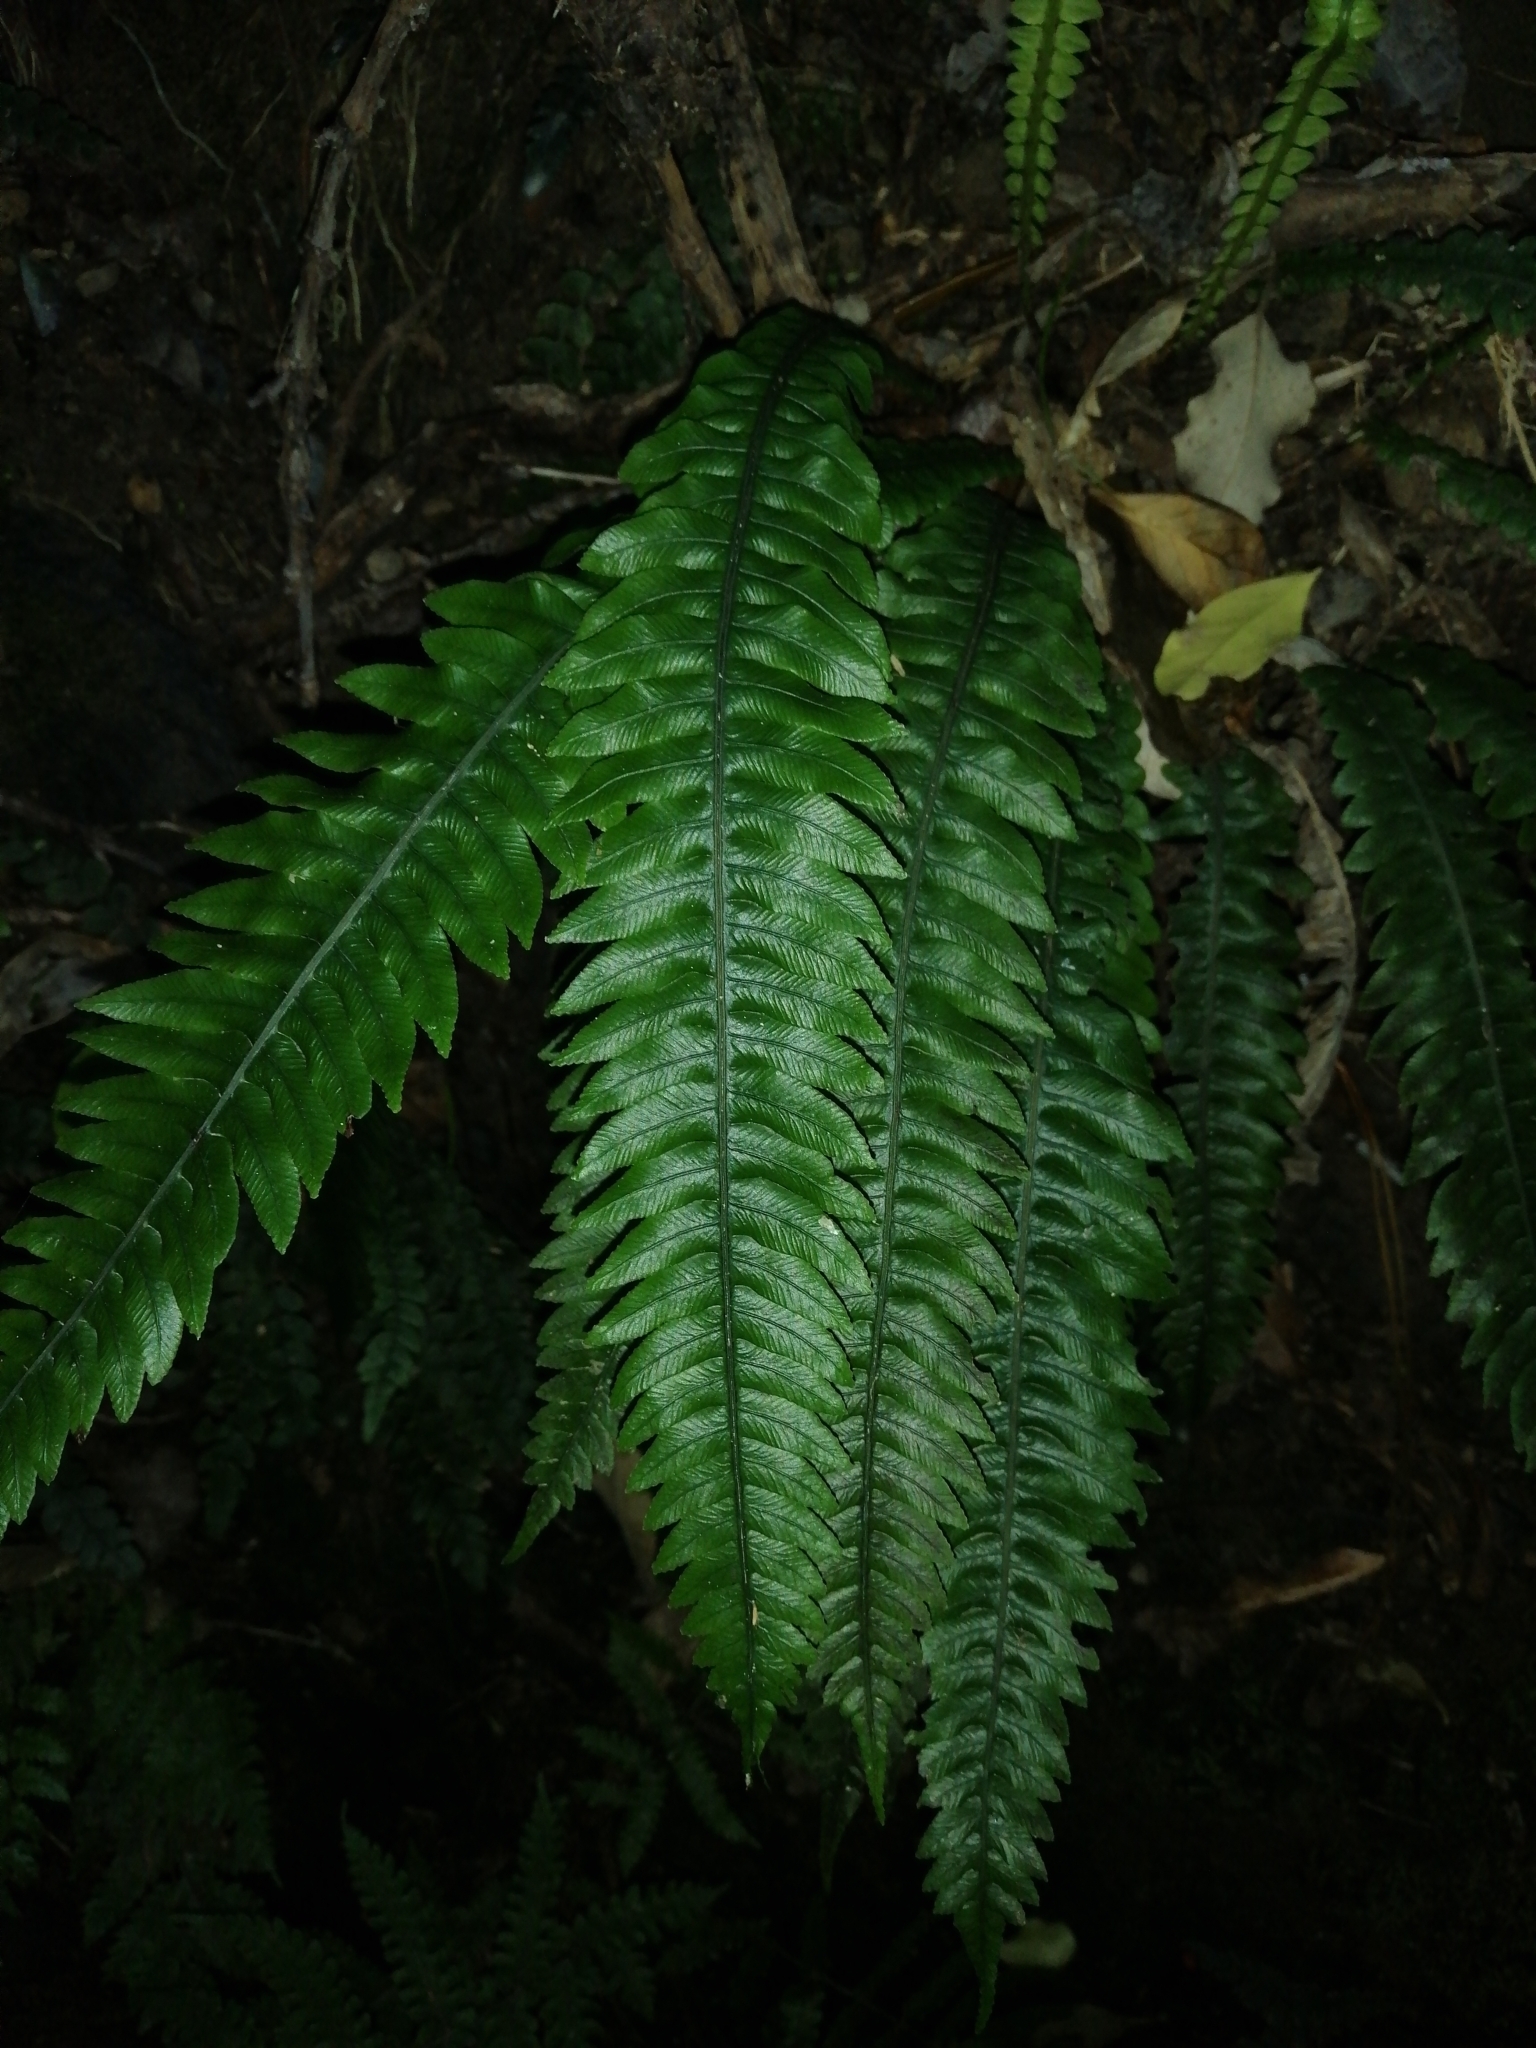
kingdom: Plantae
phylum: Tracheophyta
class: Polypodiopsida
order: Polypodiales
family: Blechnaceae
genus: Austroblechnum
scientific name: Austroblechnum lanceolatum
